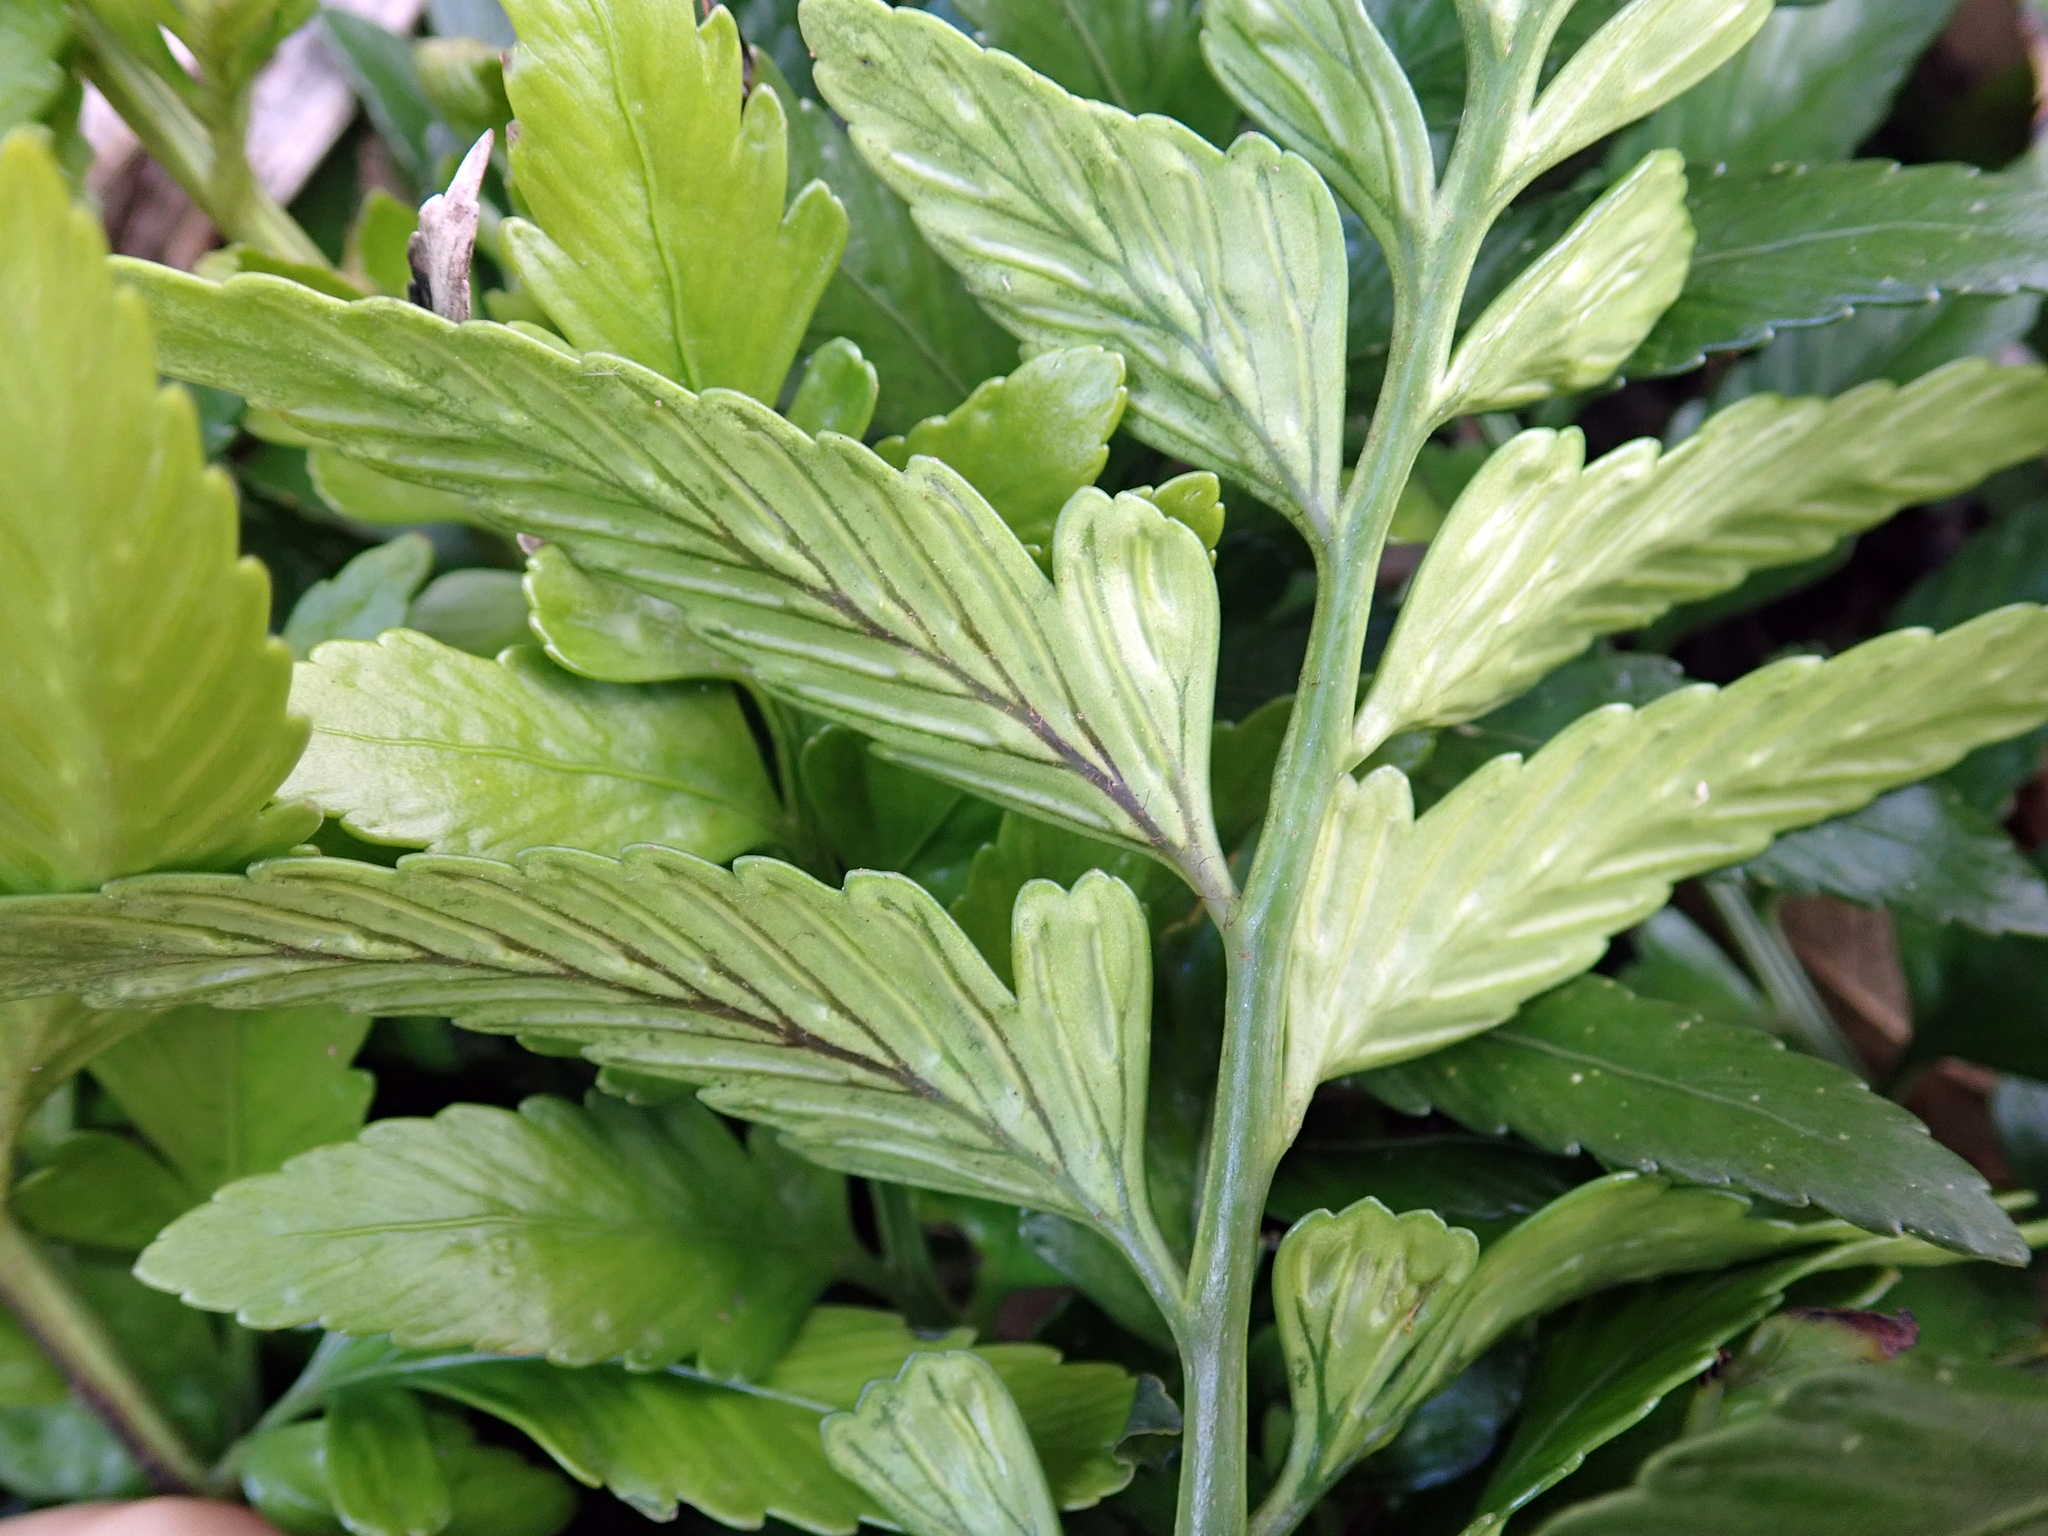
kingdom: Plantae
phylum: Tracheophyta
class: Polypodiopsida
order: Polypodiales
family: Aspleniaceae
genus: Asplenium
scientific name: Asplenium lyallii
